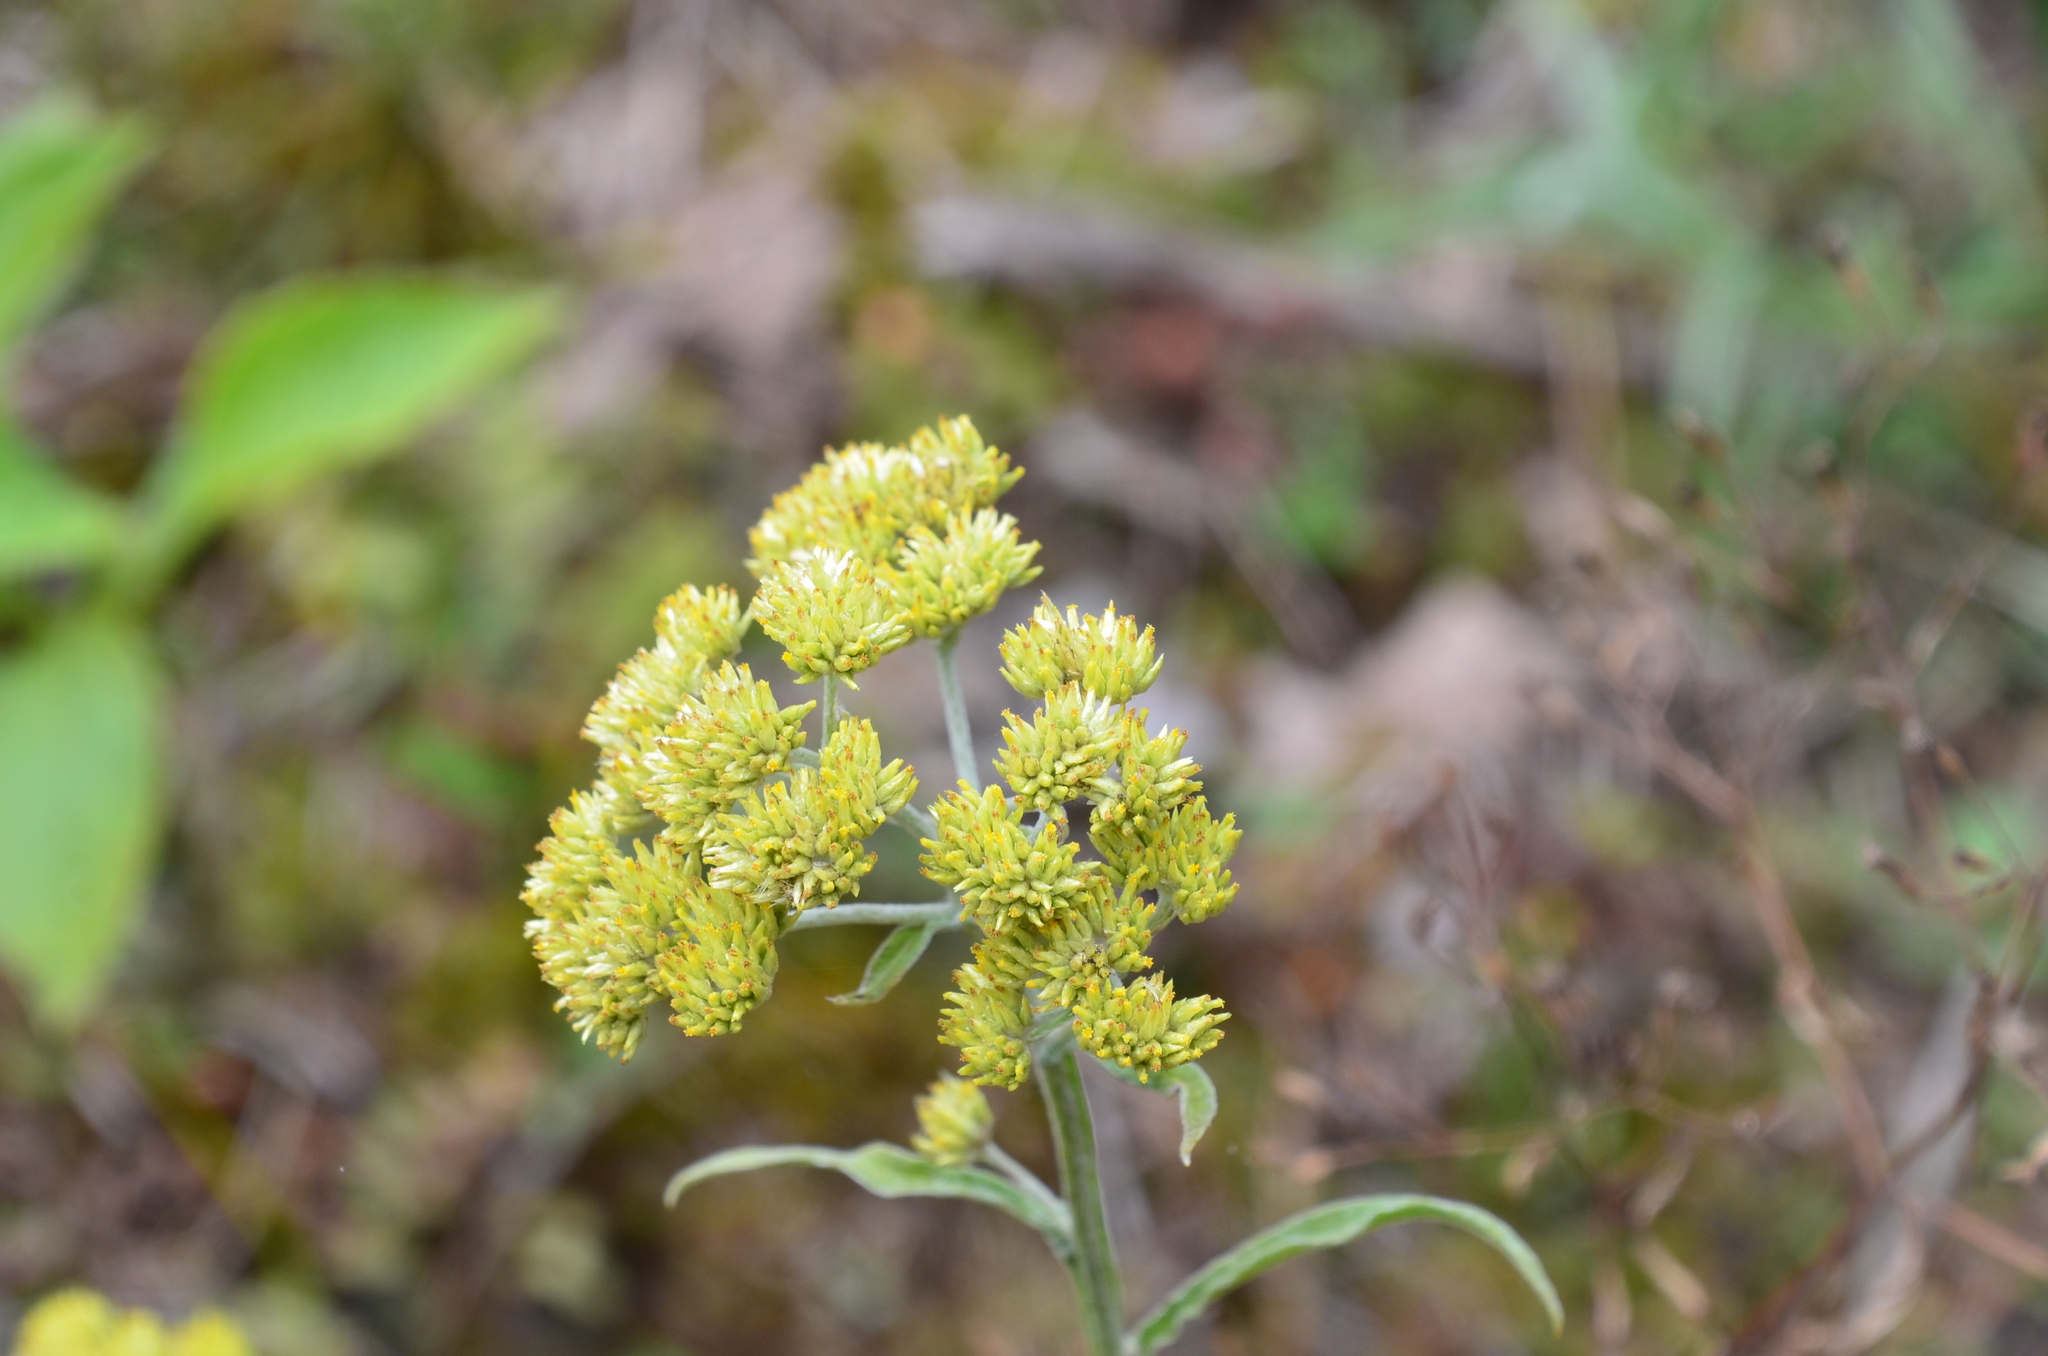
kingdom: Plantae
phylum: Tracheophyta
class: Magnoliopsida
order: Asterales
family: Asteraceae
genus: Achyrocline
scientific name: Achyrocline alata
